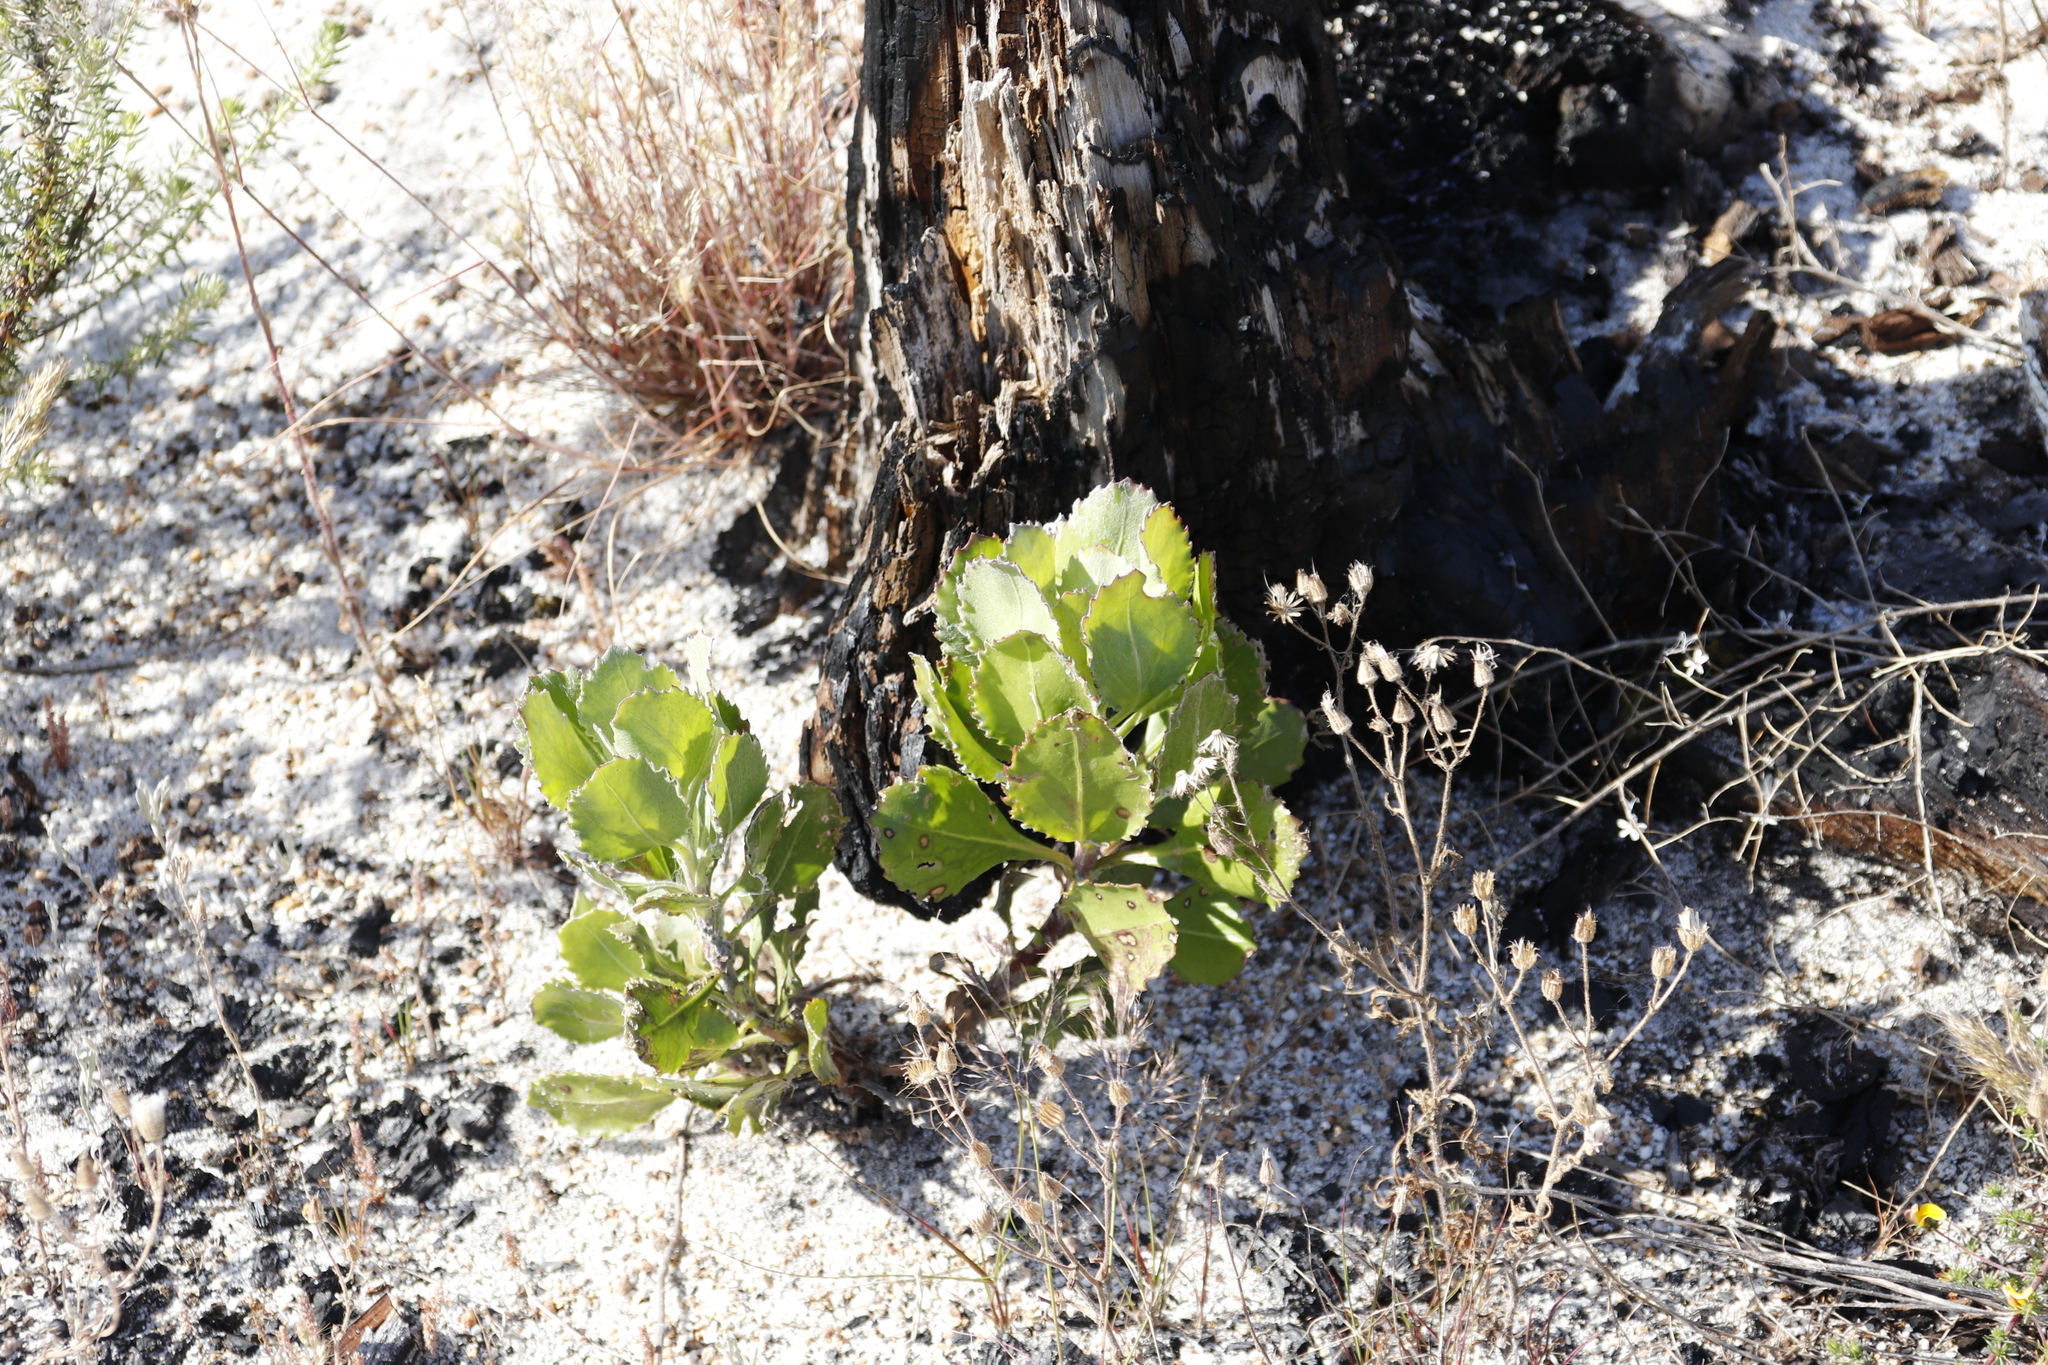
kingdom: Plantae
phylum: Tracheophyta
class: Magnoliopsida
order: Asterales
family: Asteraceae
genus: Osteospermum
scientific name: Osteospermum moniliferum
